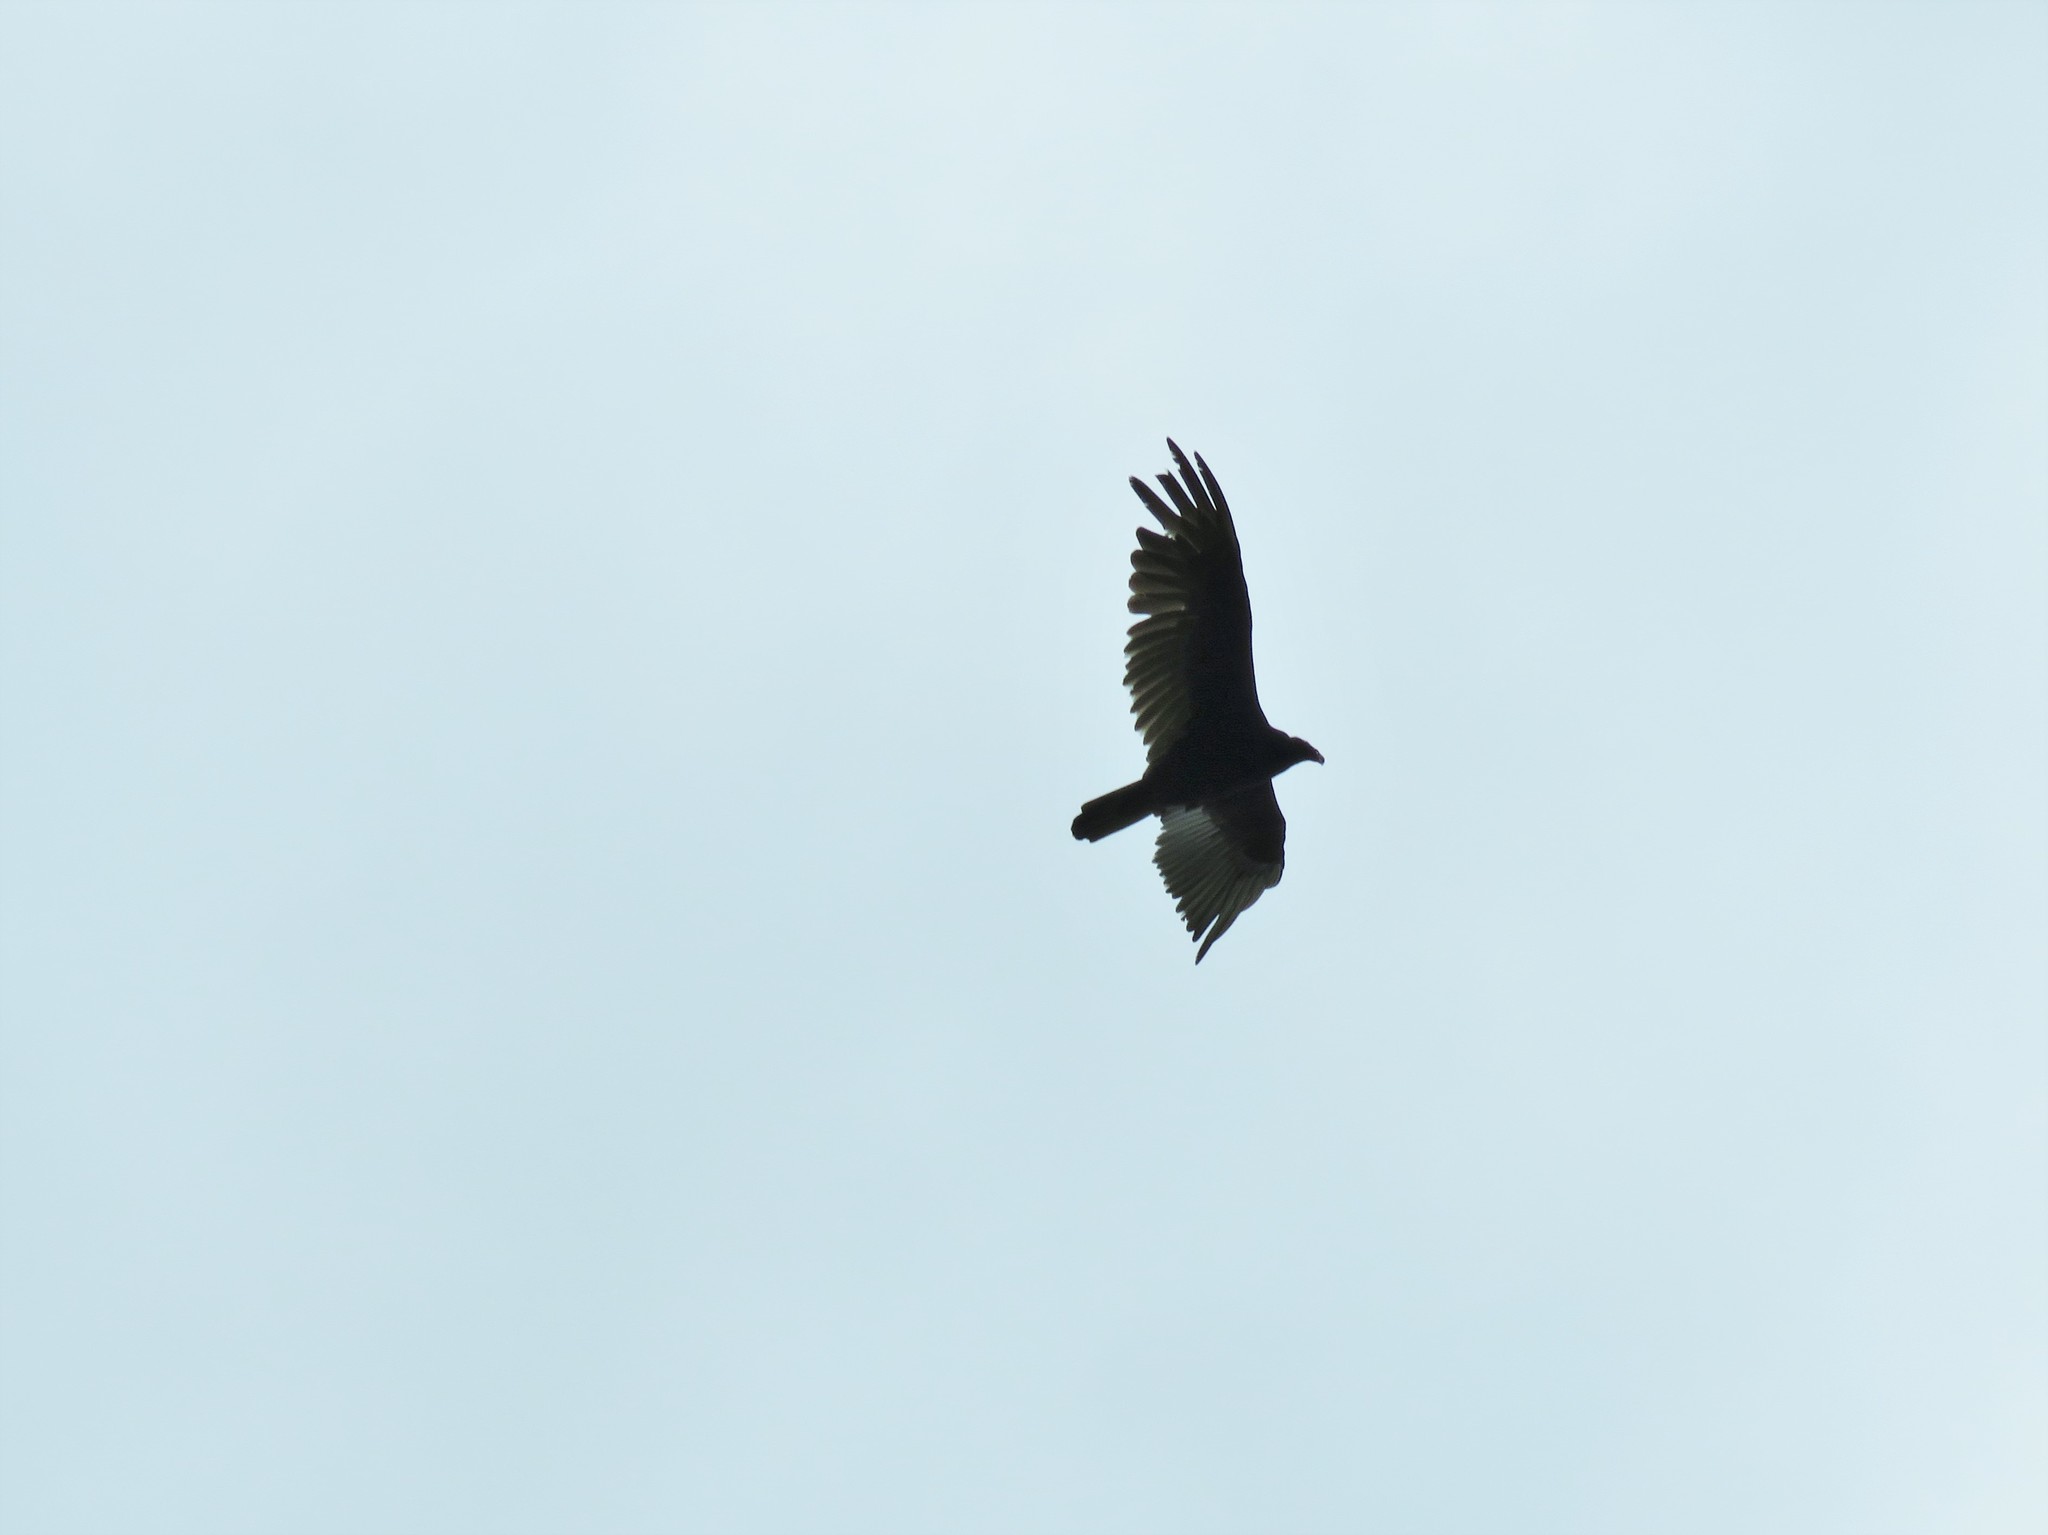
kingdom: Animalia
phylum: Chordata
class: Aves
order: Accipitriformes
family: Cathartidae
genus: Cathartes
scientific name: Cathartes aura
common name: Turkey vulture
